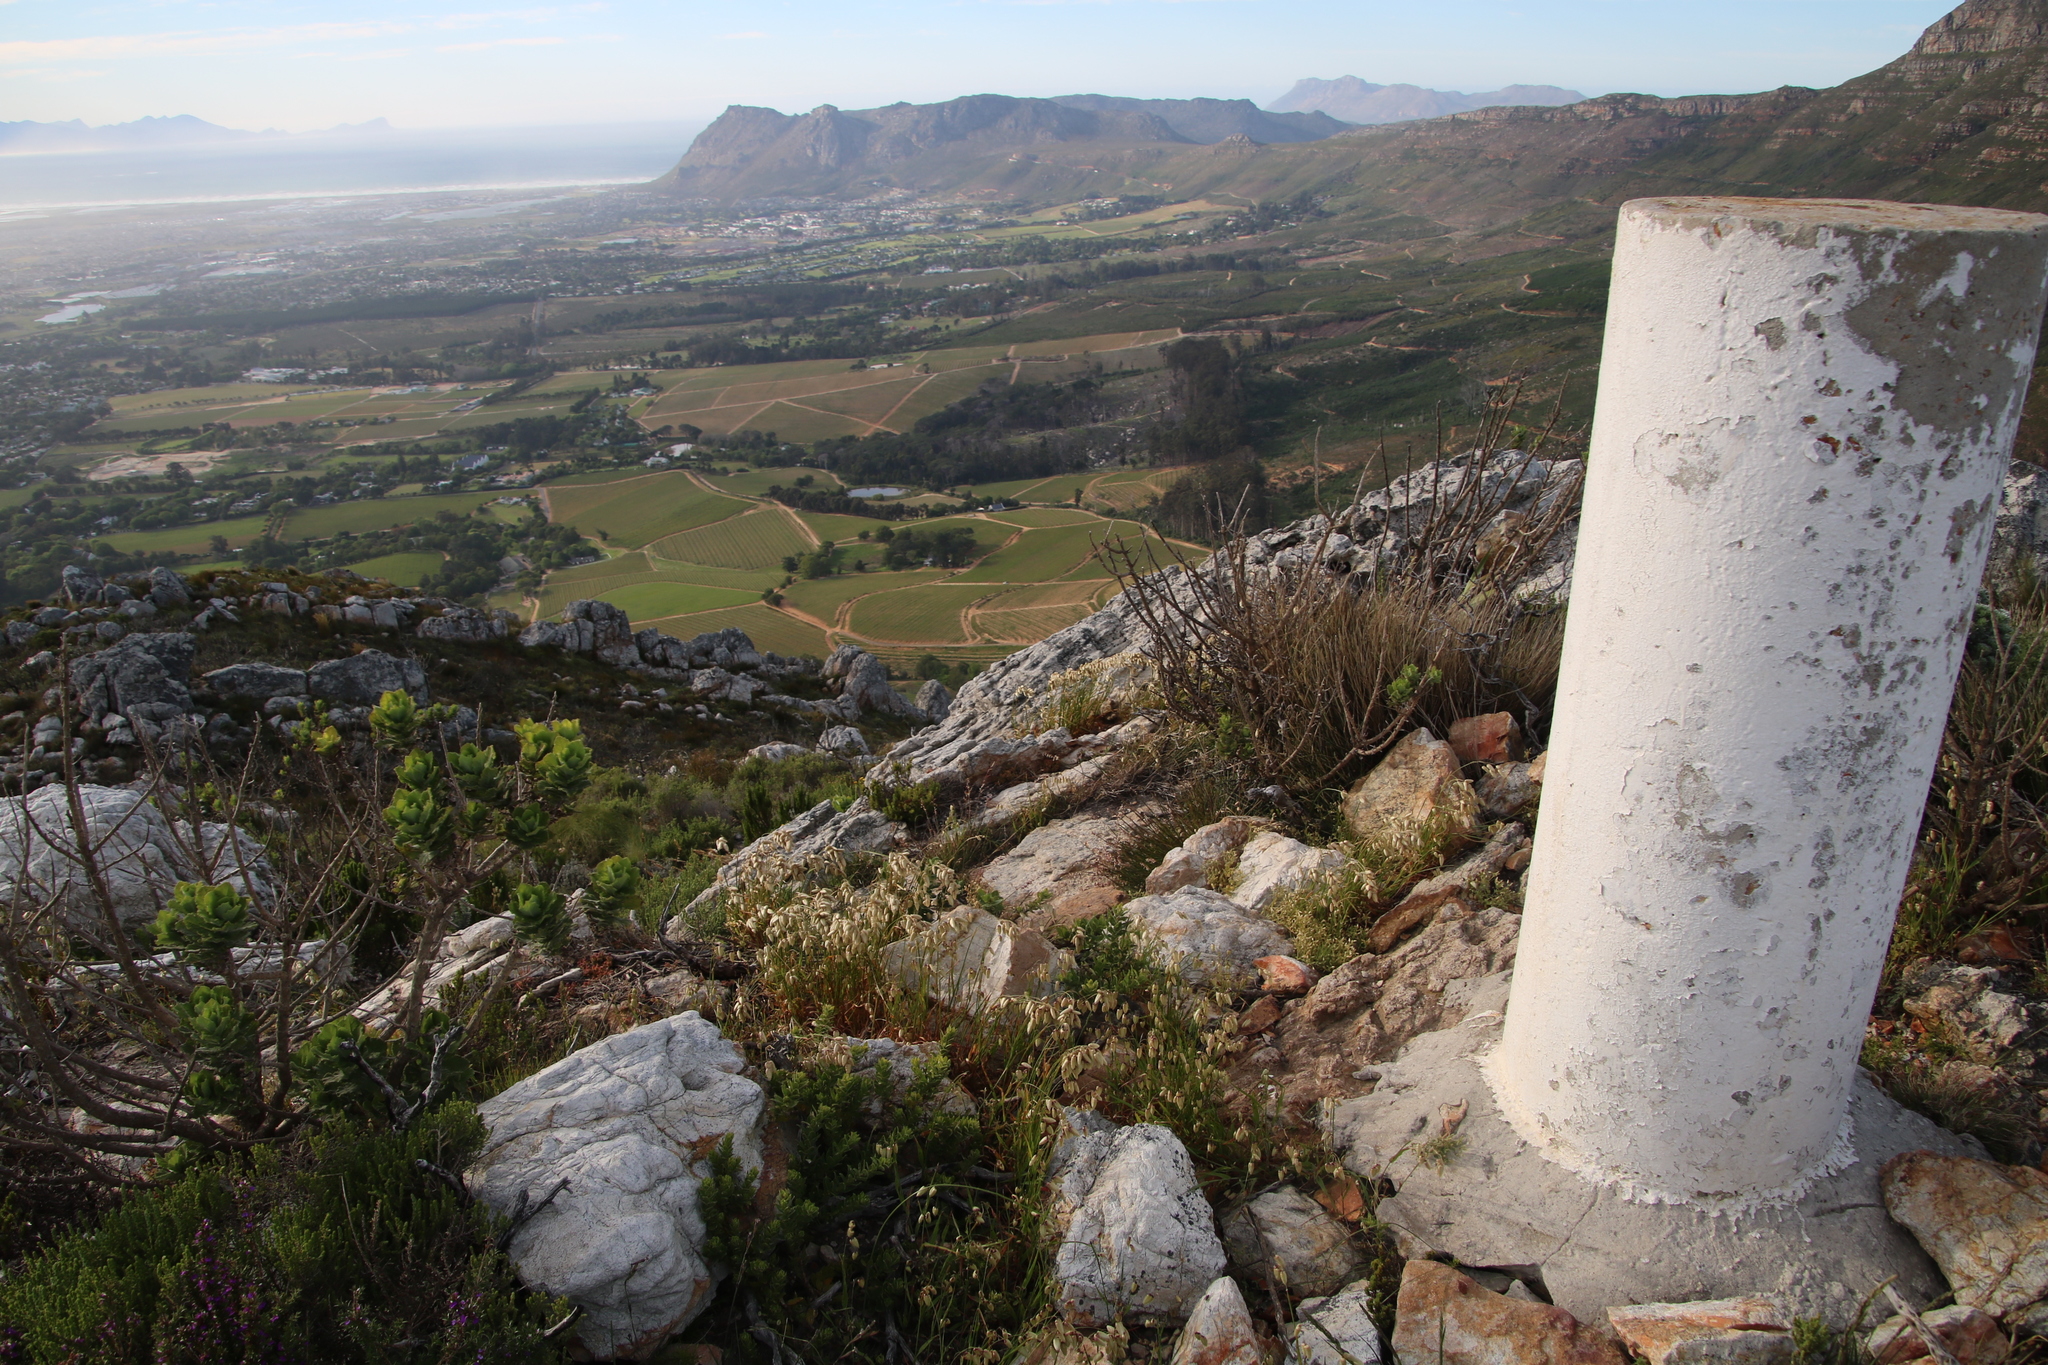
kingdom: Plantae
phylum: Tracheophyta
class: Liliopsida
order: Poales
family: Poaceae
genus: Briza
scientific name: Briza maxima
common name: Big quakinggrass
